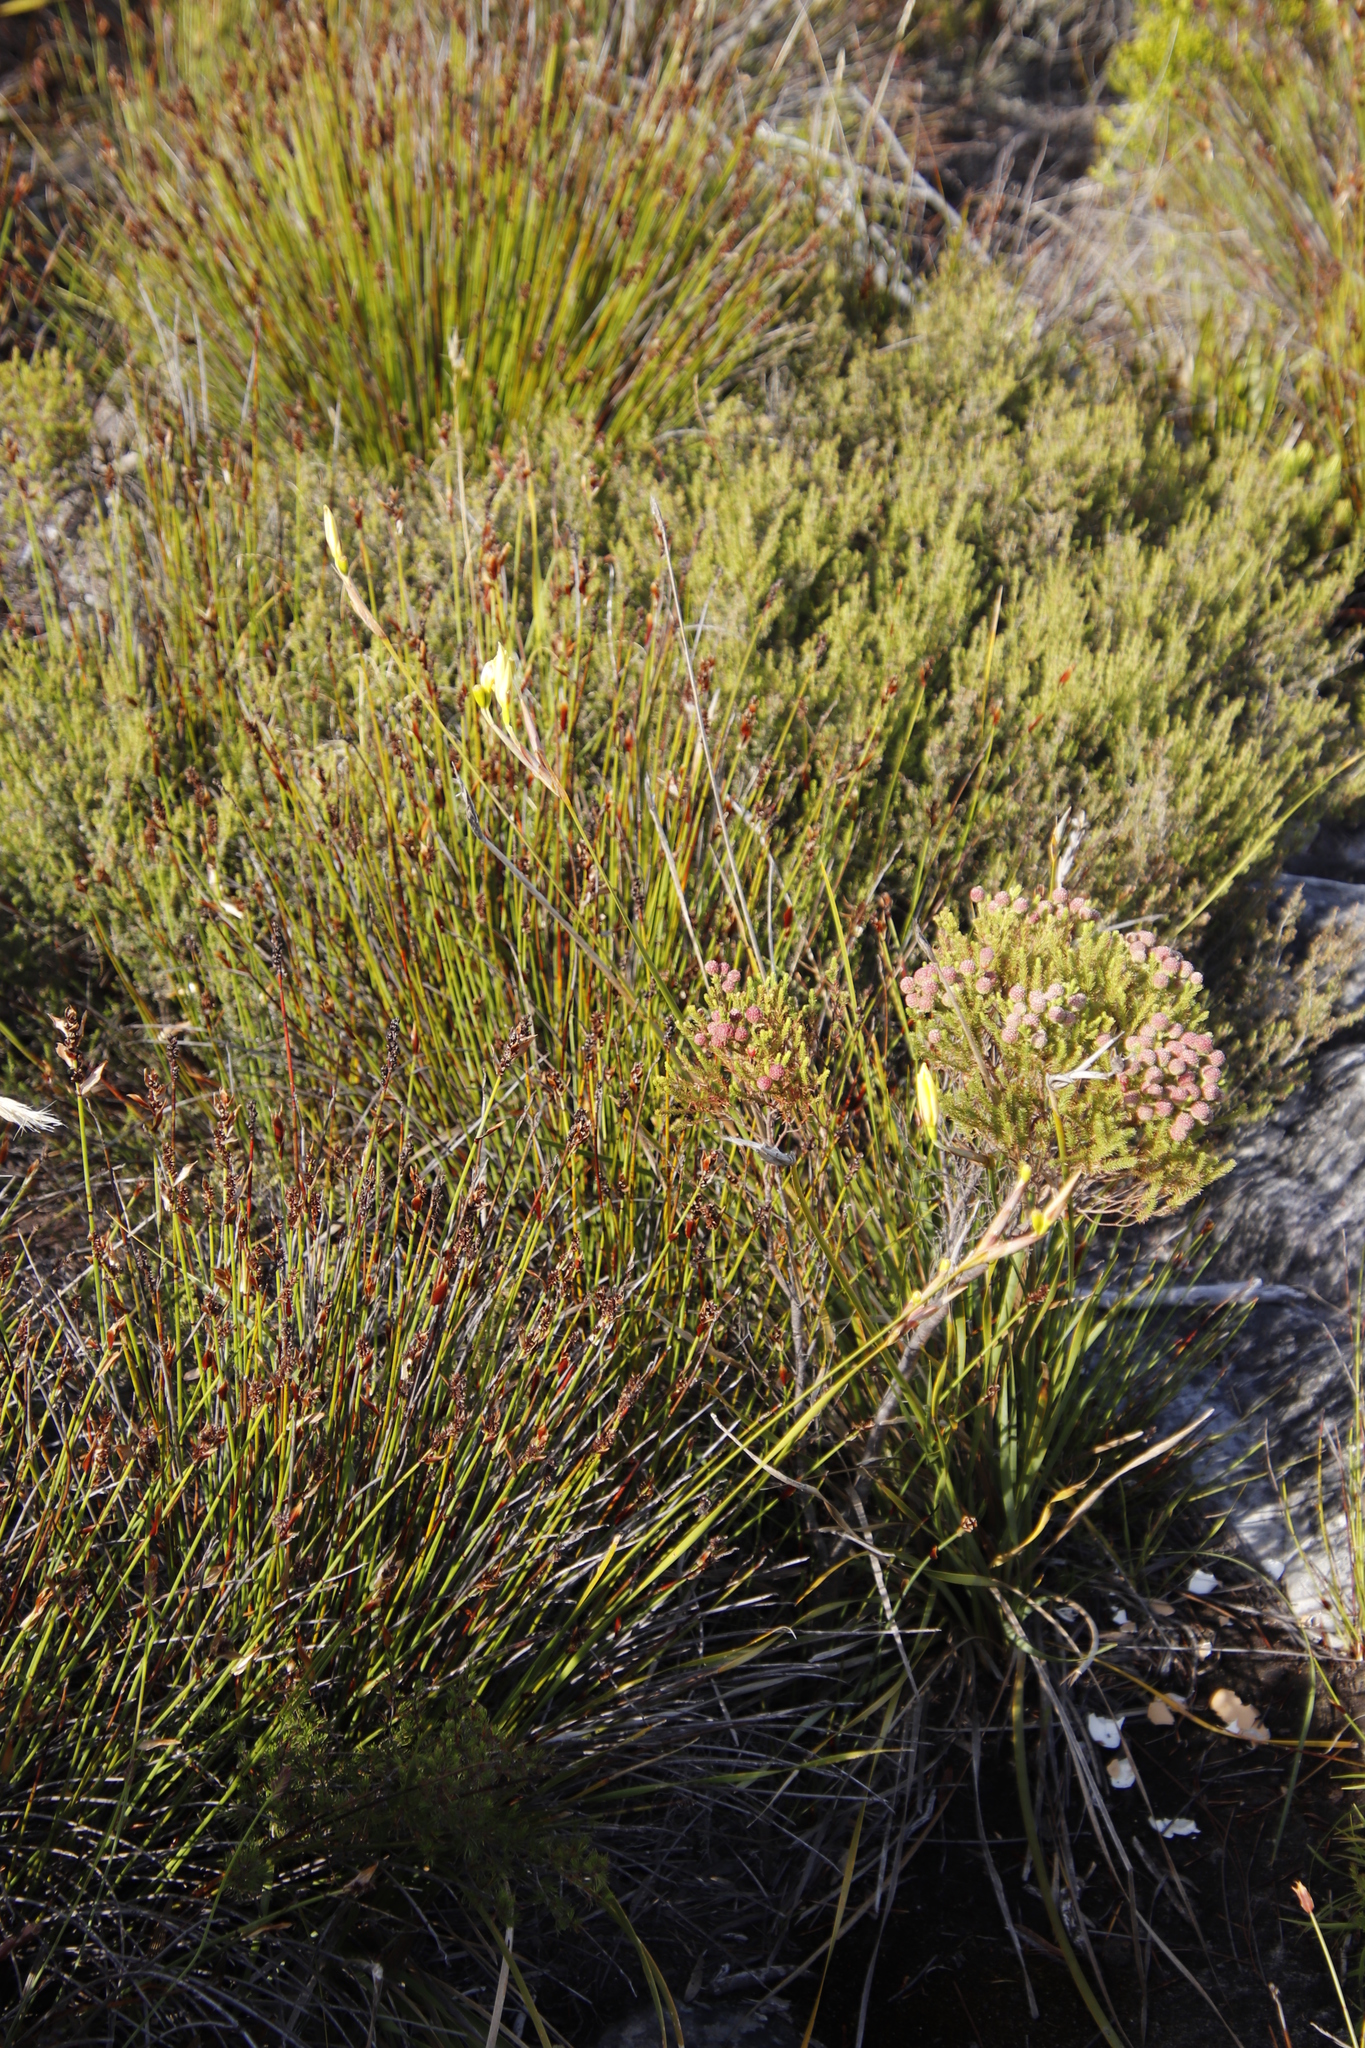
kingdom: Plantae
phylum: Tracheophyta
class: Liliopsida
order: Asparagales
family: Iridaceae
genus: Bobartia
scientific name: Bobartia gladiata
